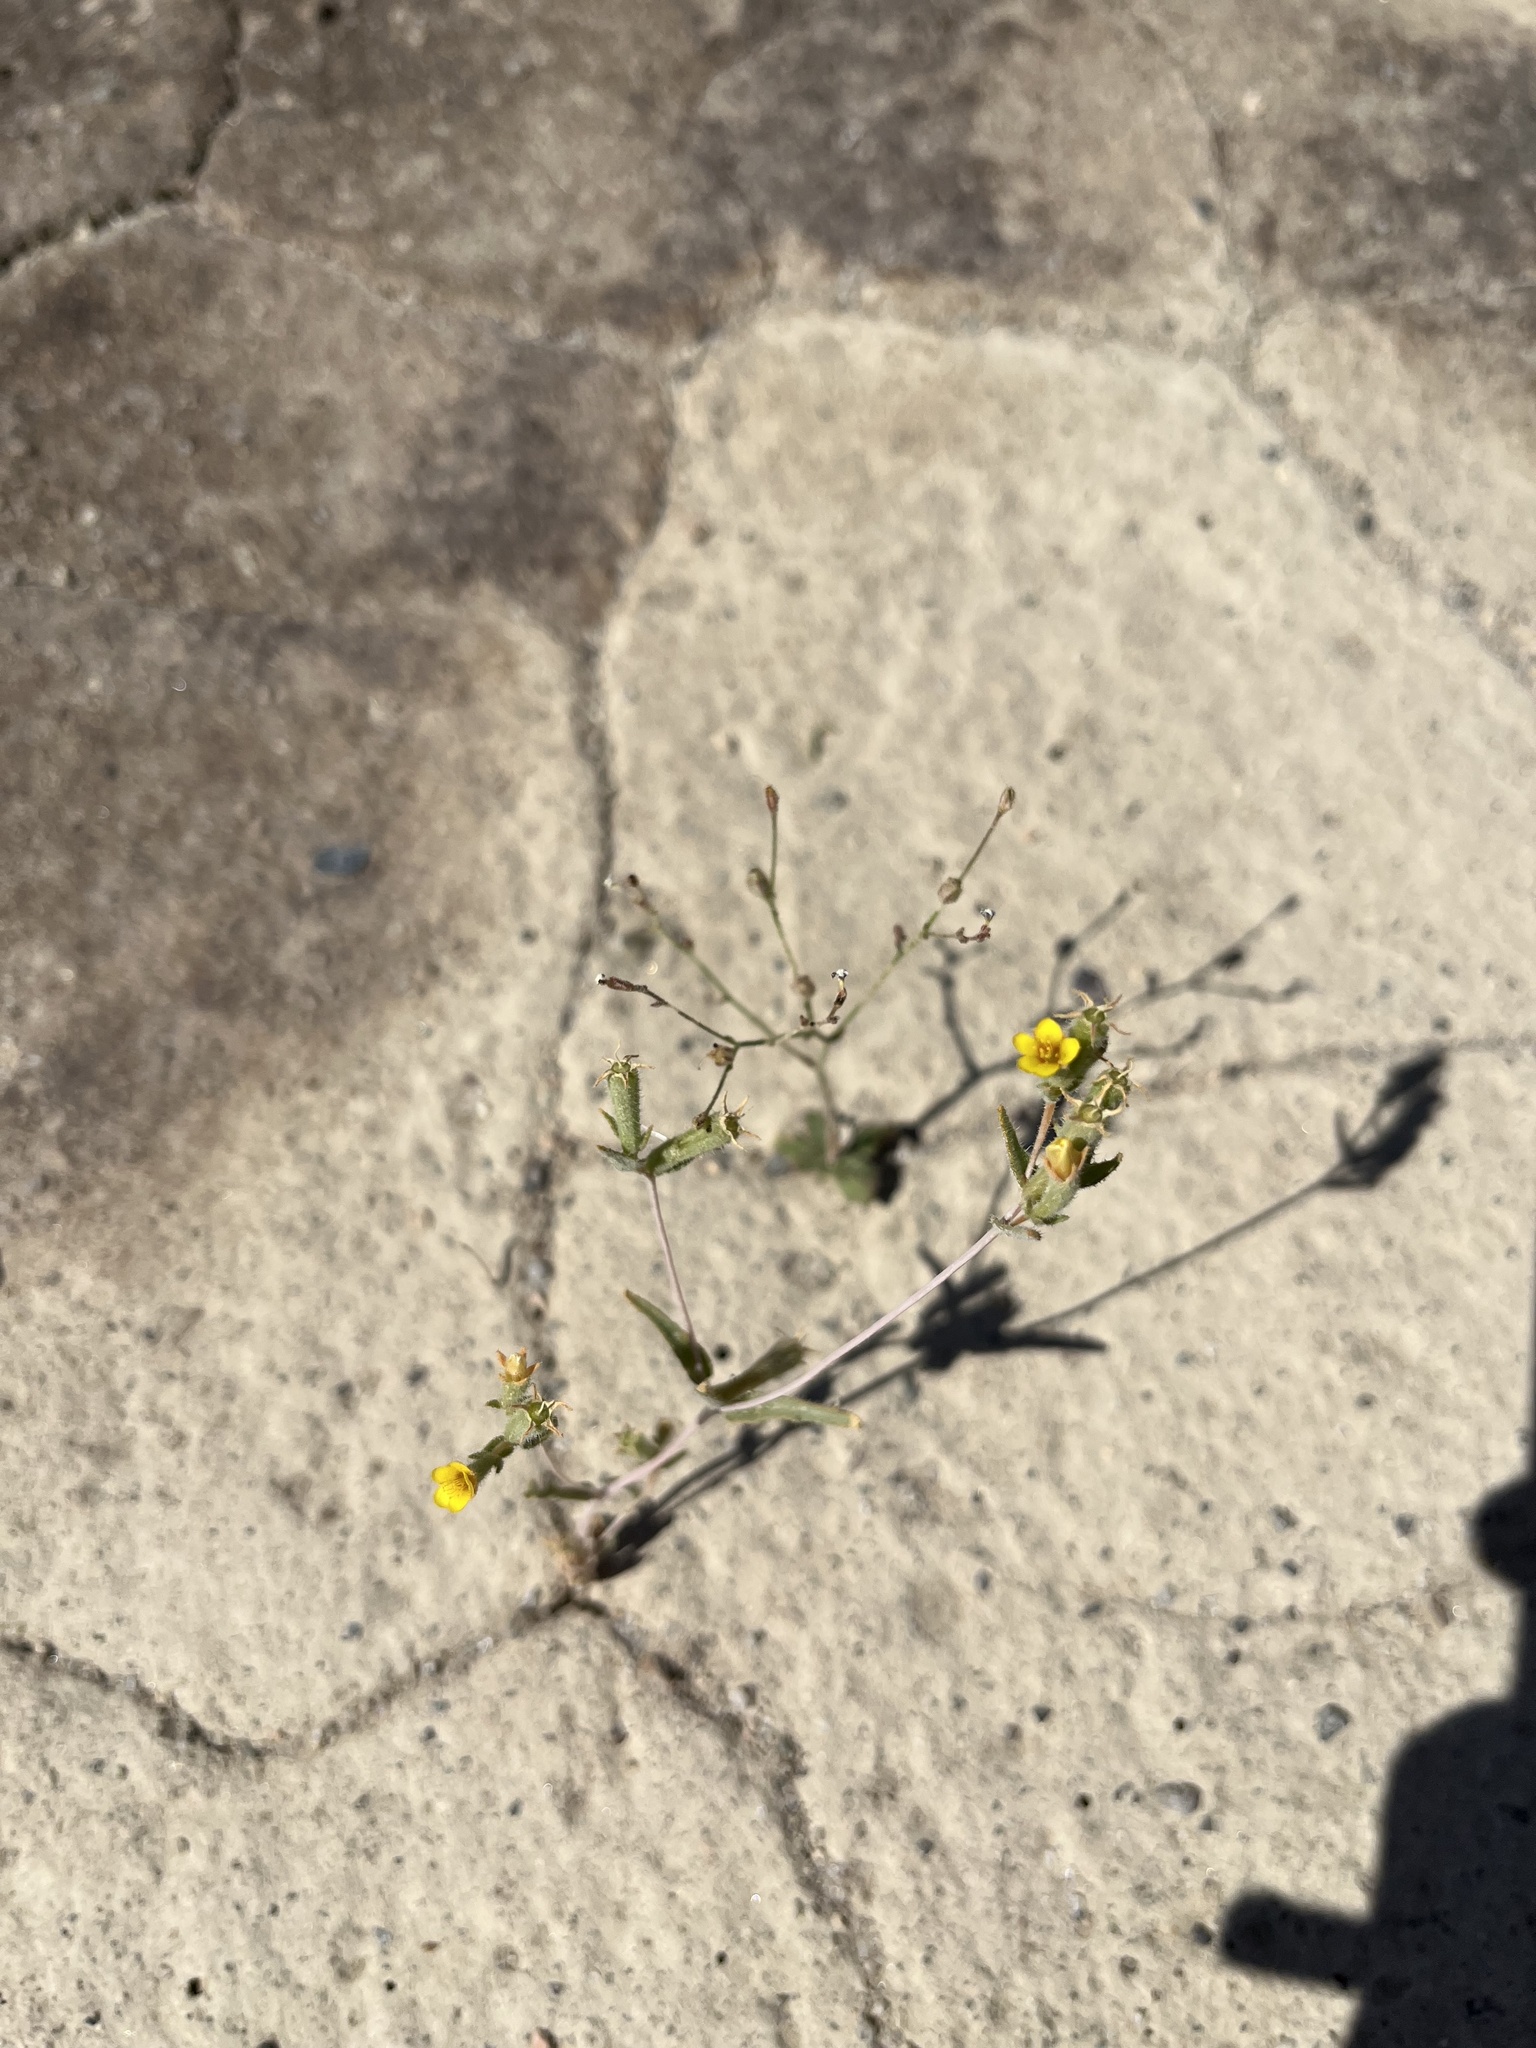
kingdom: Plantae
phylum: Tracheophyta
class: Magnoliopsida
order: Cornales
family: Loasaceae
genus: Mentzelia
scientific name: Mentzelia albicaulis
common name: White-stem blazingstar
